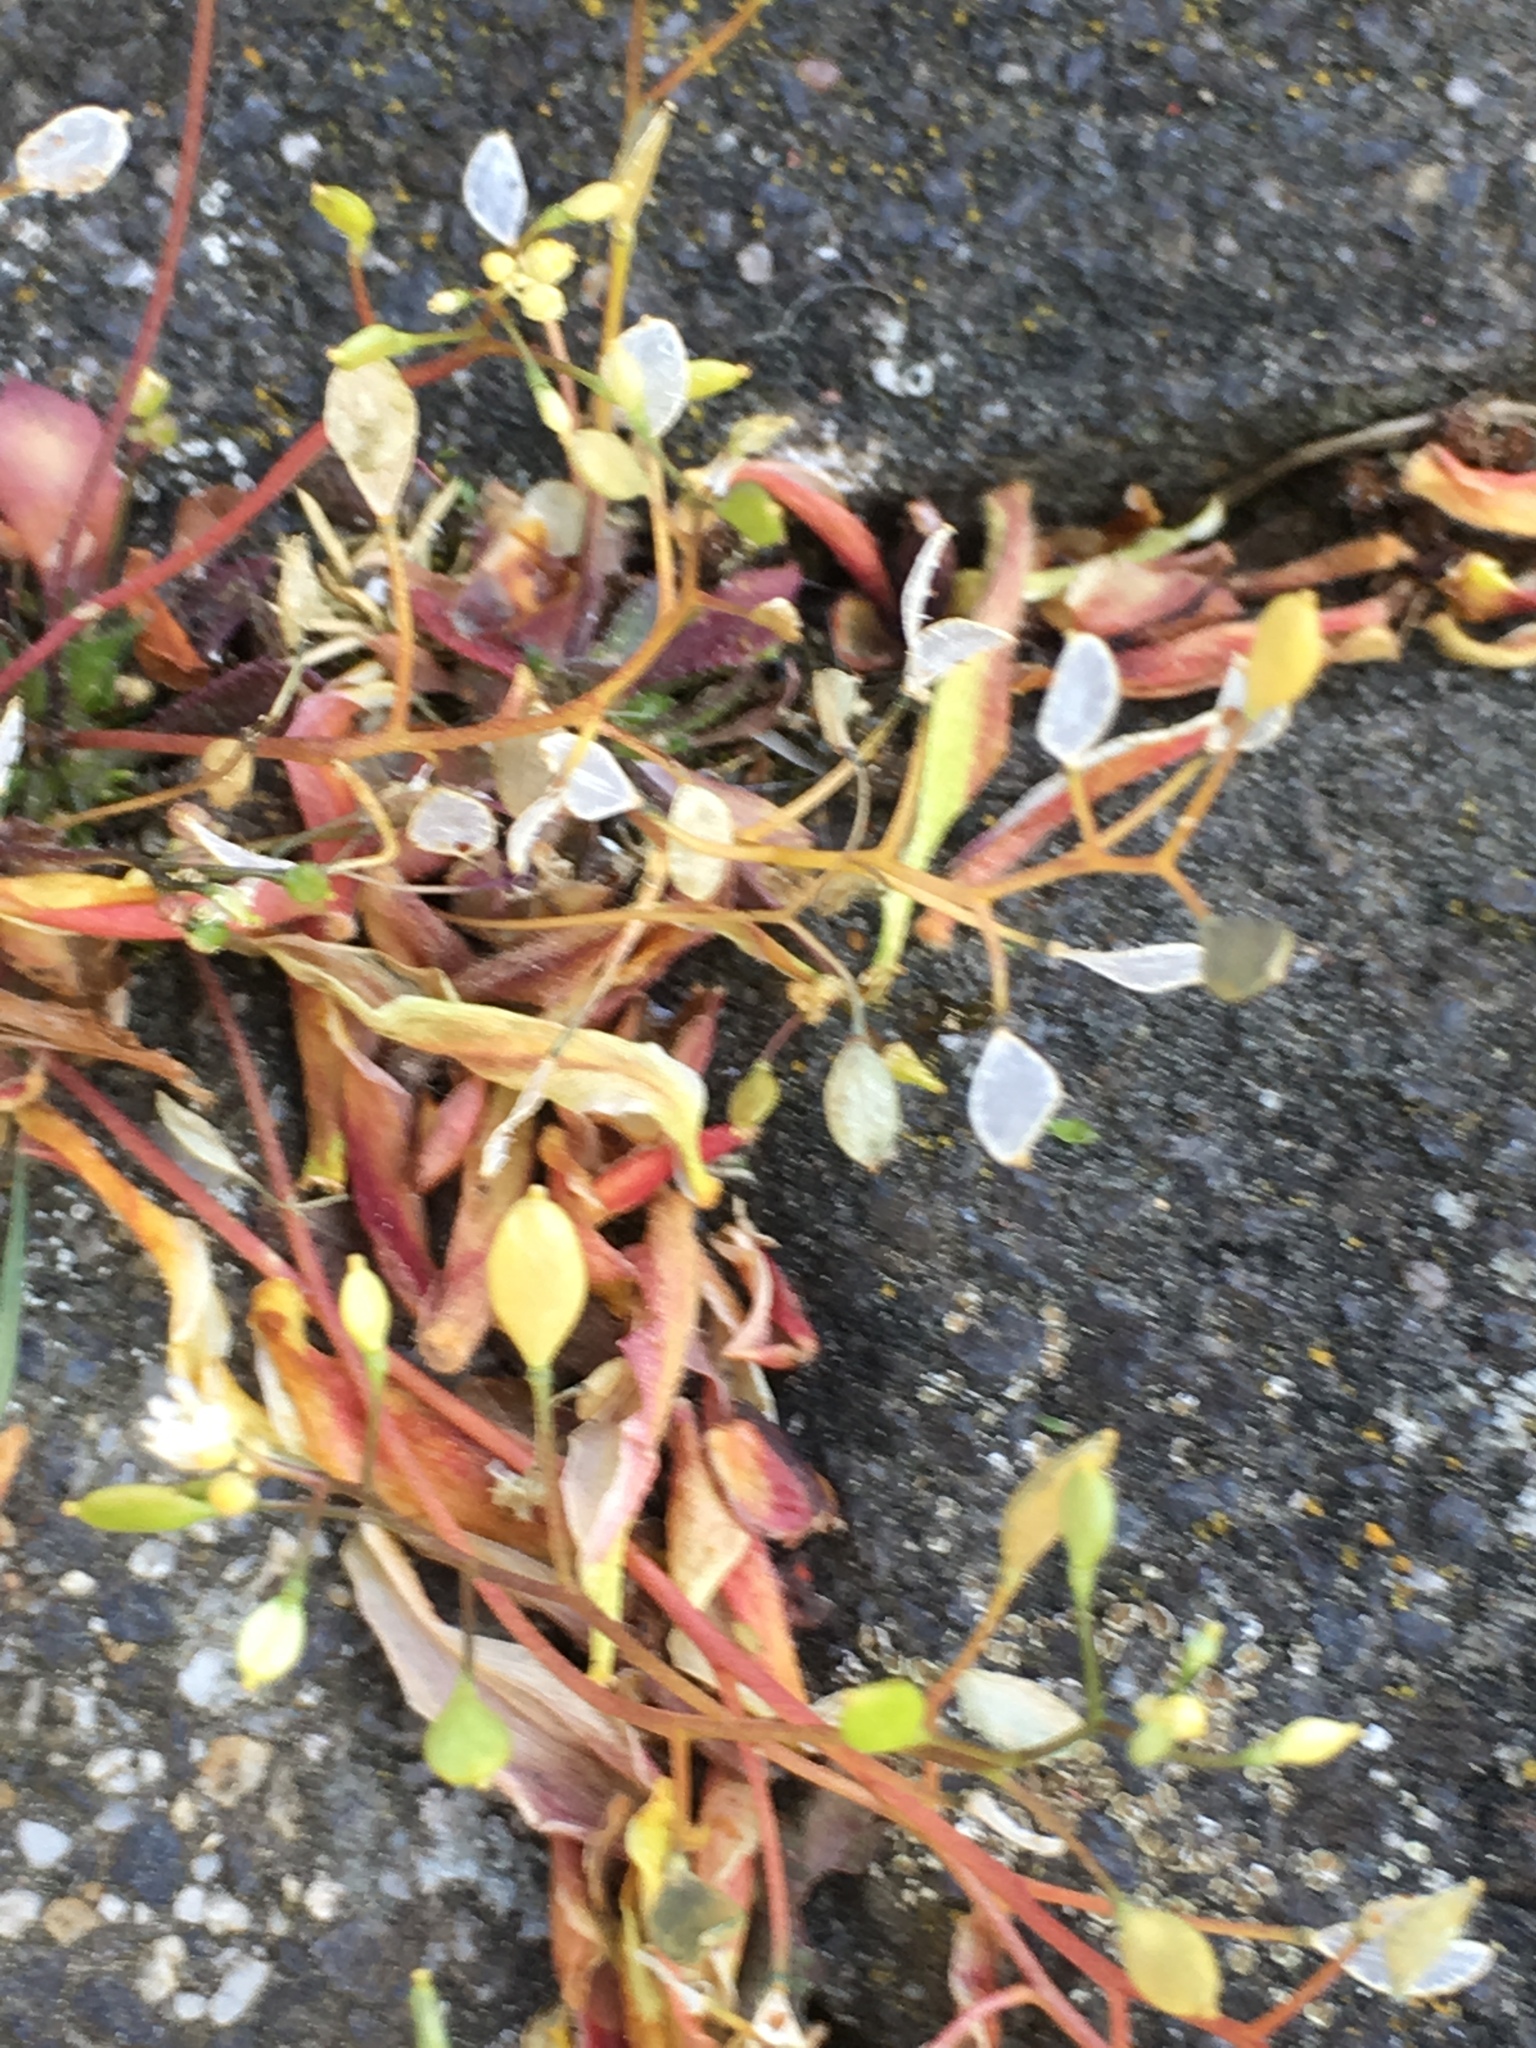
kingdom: Plantae
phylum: Tracheophyta
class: Magnoliopsida
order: Brassicales
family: Brassicaceae
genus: Draba
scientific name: Draba verna
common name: Spring draba
